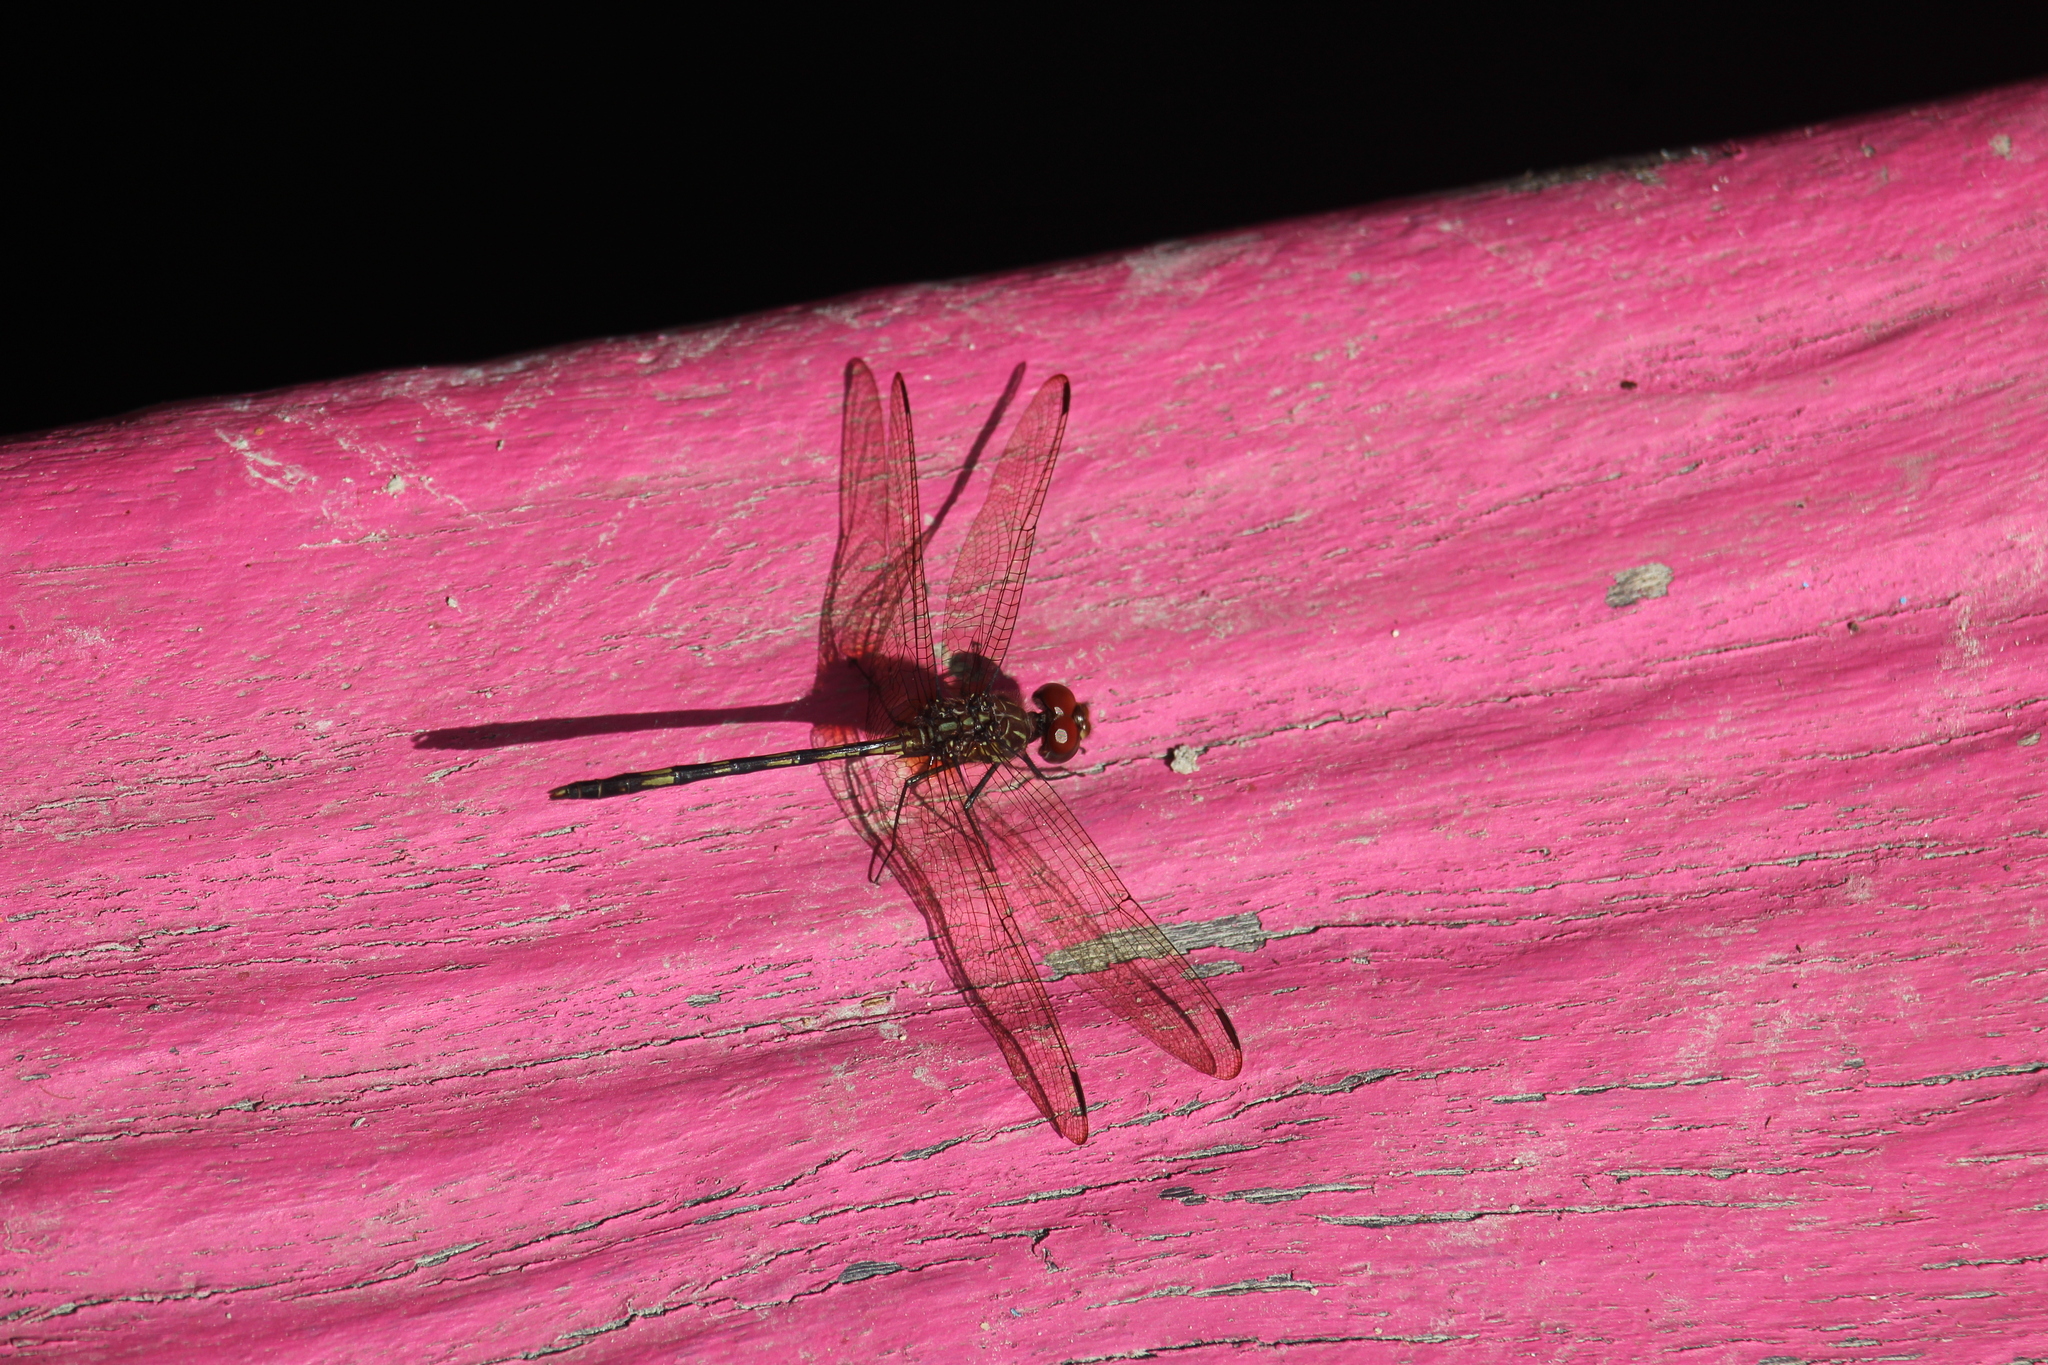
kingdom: Animalia
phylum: Arthropoda
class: Insecta
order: Odonata
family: Libellulidae
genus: Dythemis
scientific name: Dythemis sterilis
